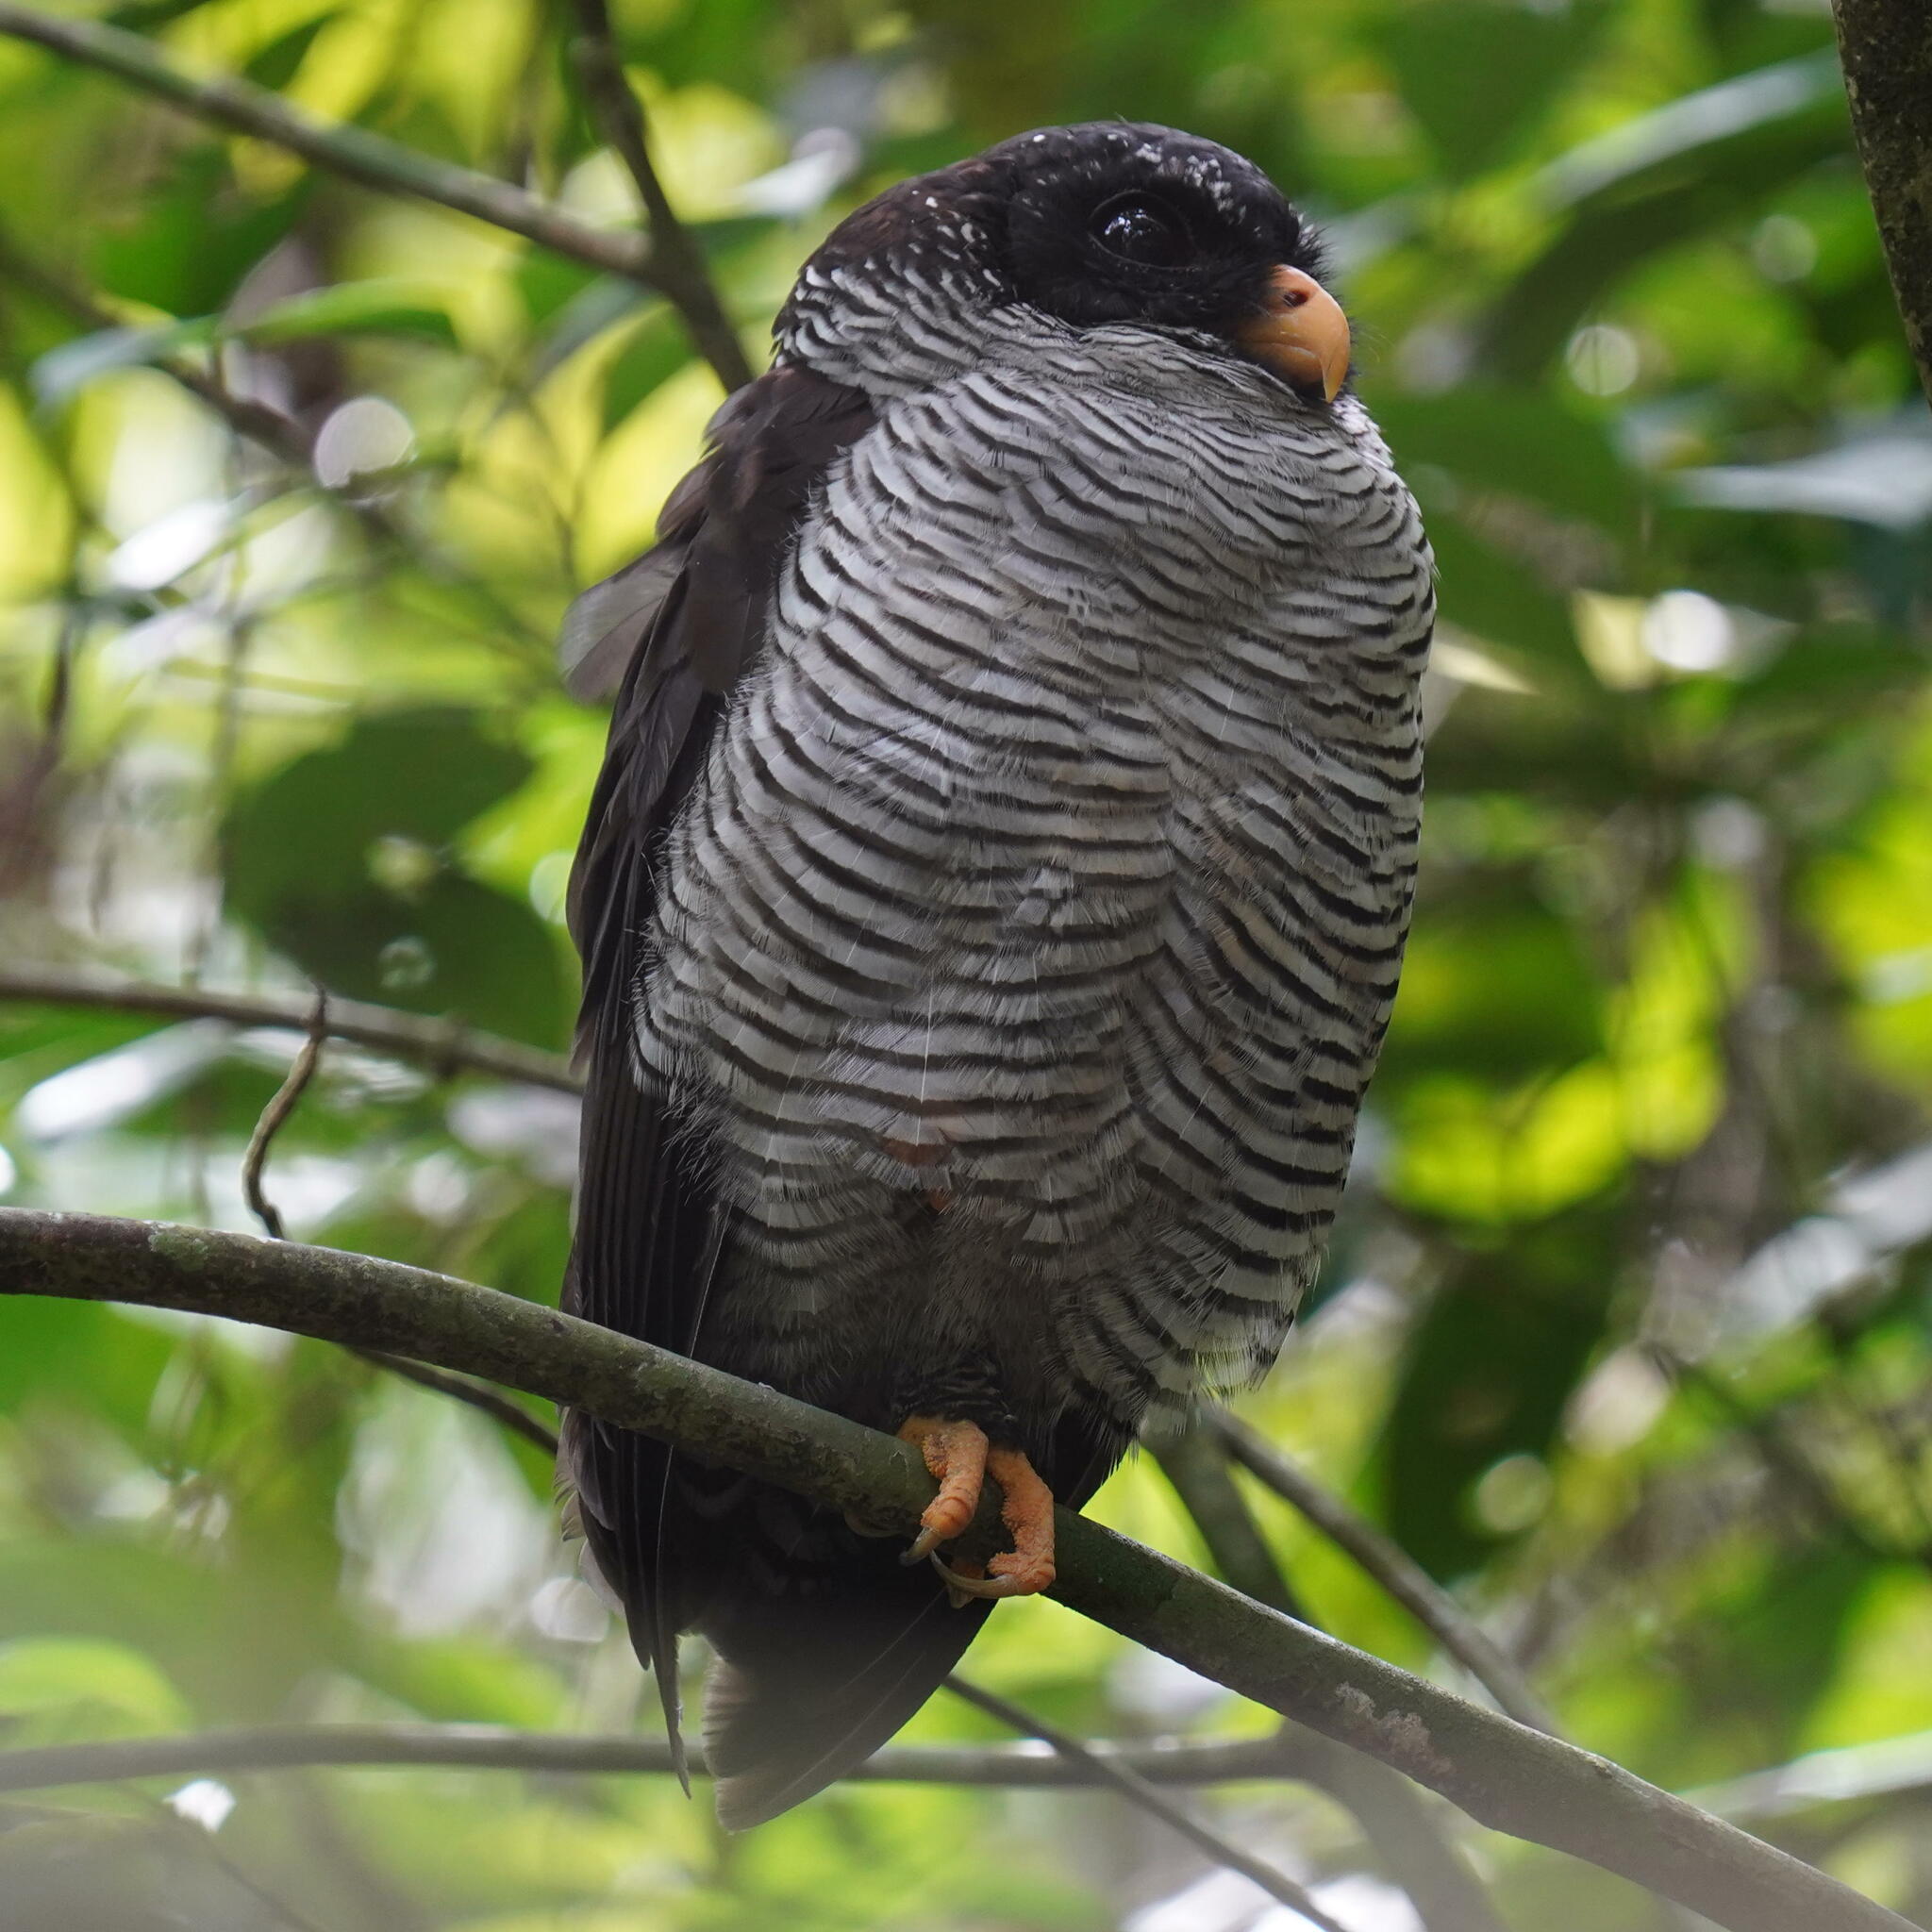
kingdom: Animalia
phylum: Chordata
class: Aves
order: Strigiformes
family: Strigidae
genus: Strix
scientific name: Strix nigrolineata
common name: Black-and-white owl
